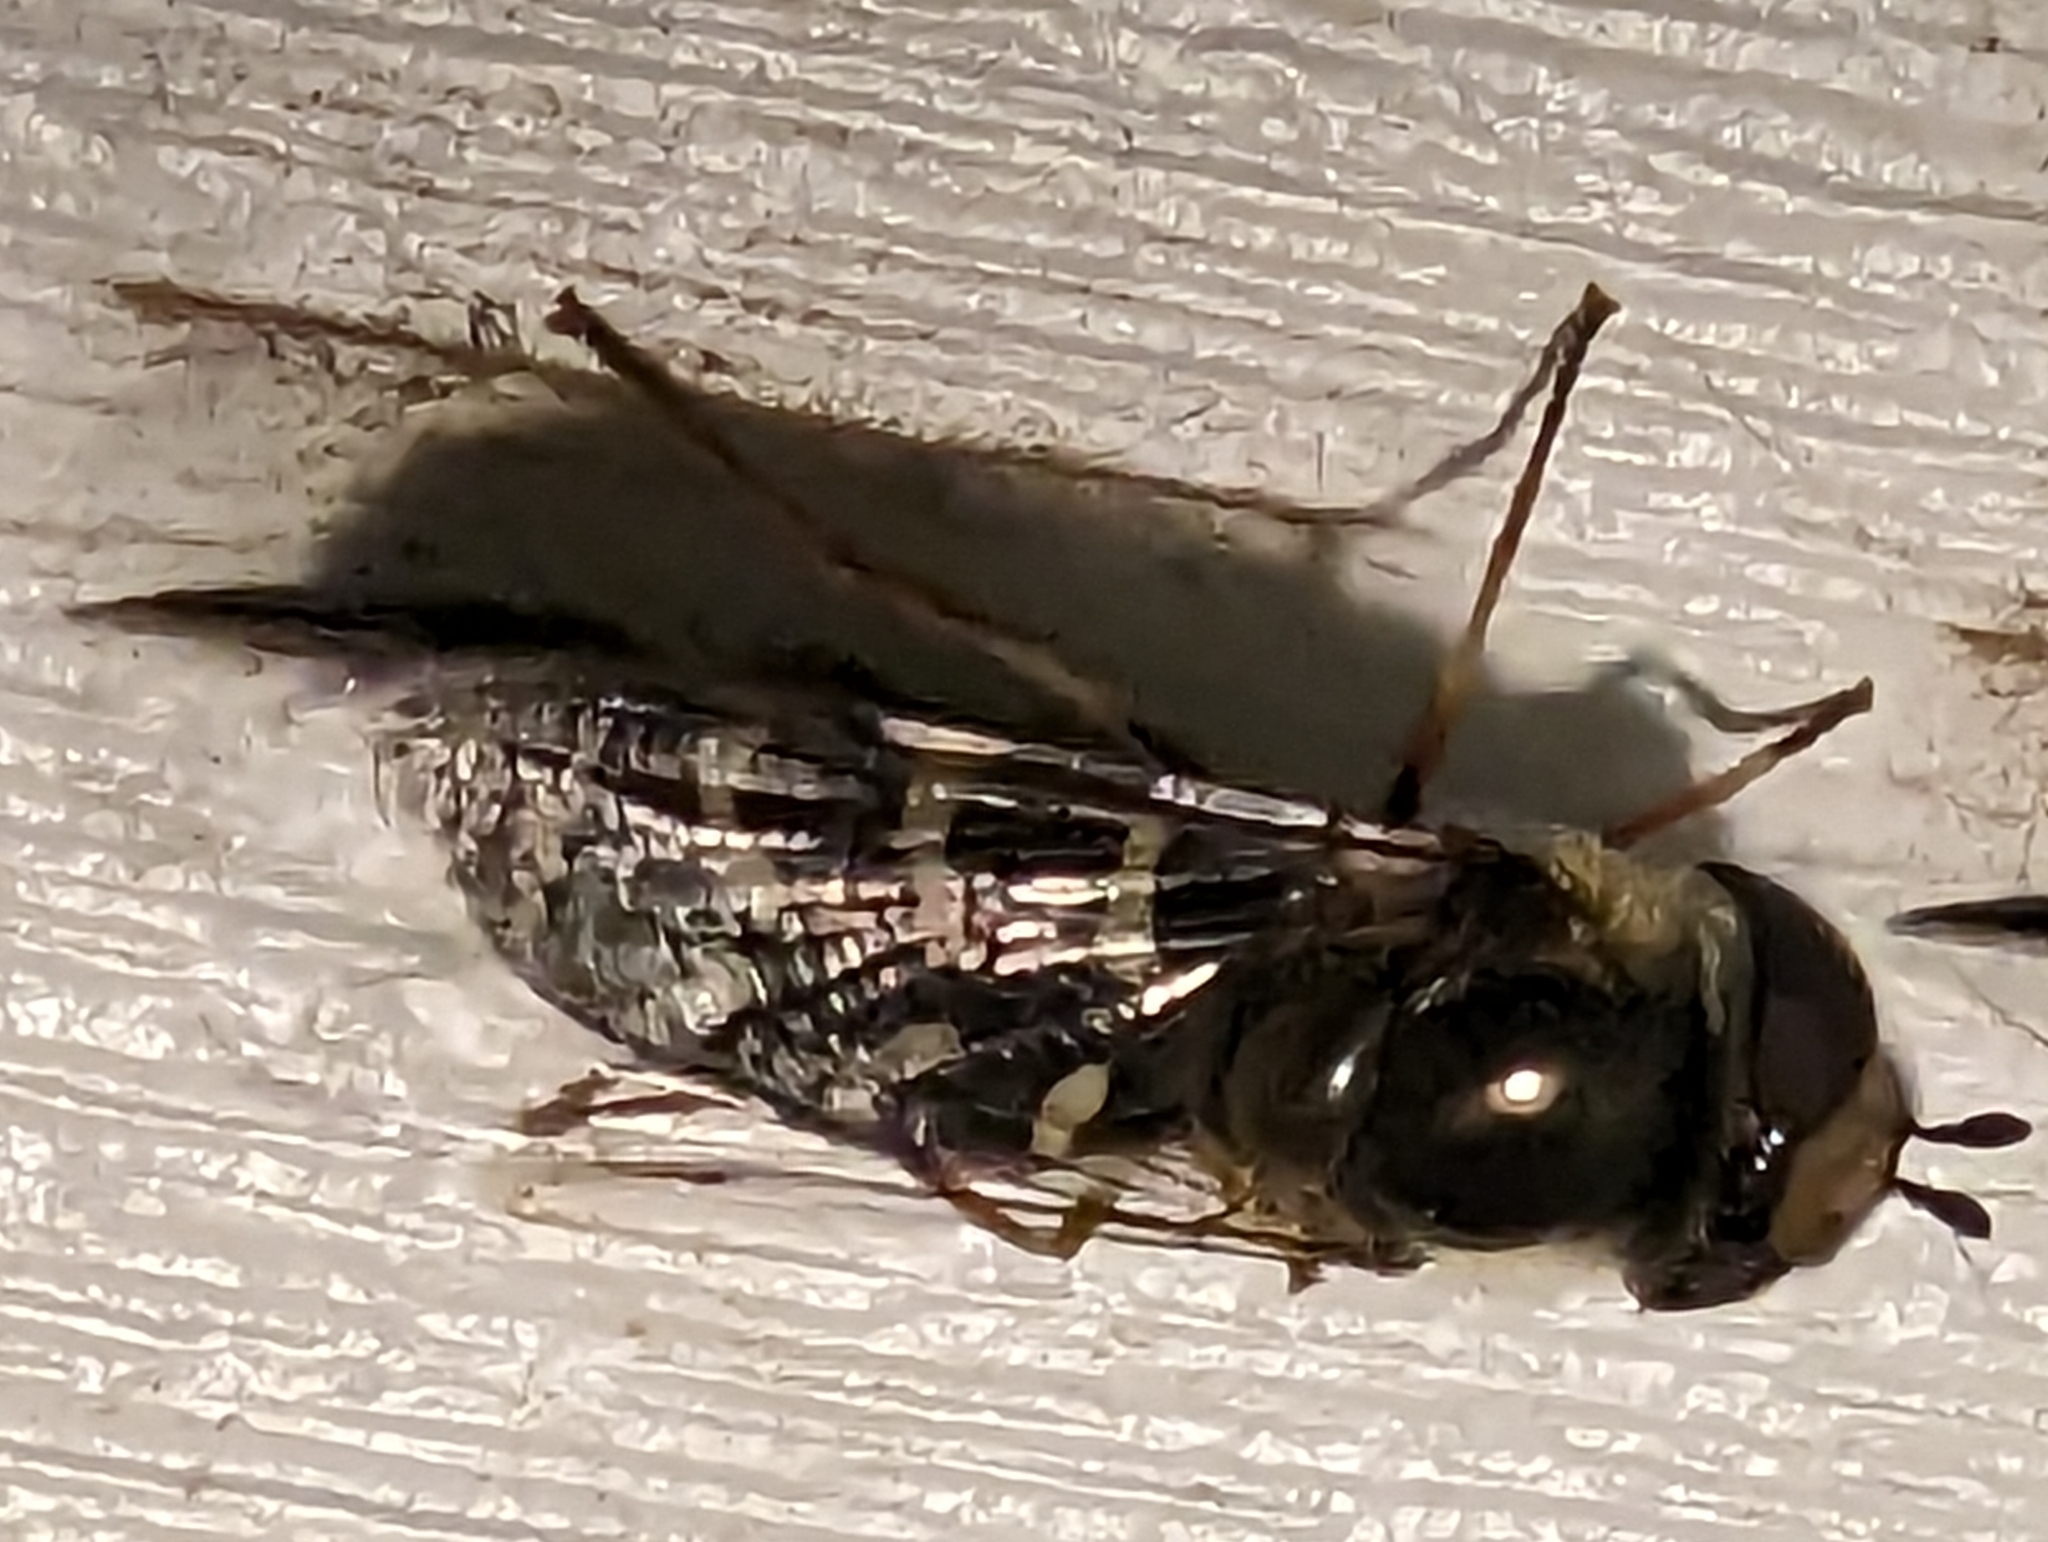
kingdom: Animalia
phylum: Arthropoda
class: Insecta
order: Diptera
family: Syrphidae
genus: Scaeva
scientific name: Scaeva affinis
